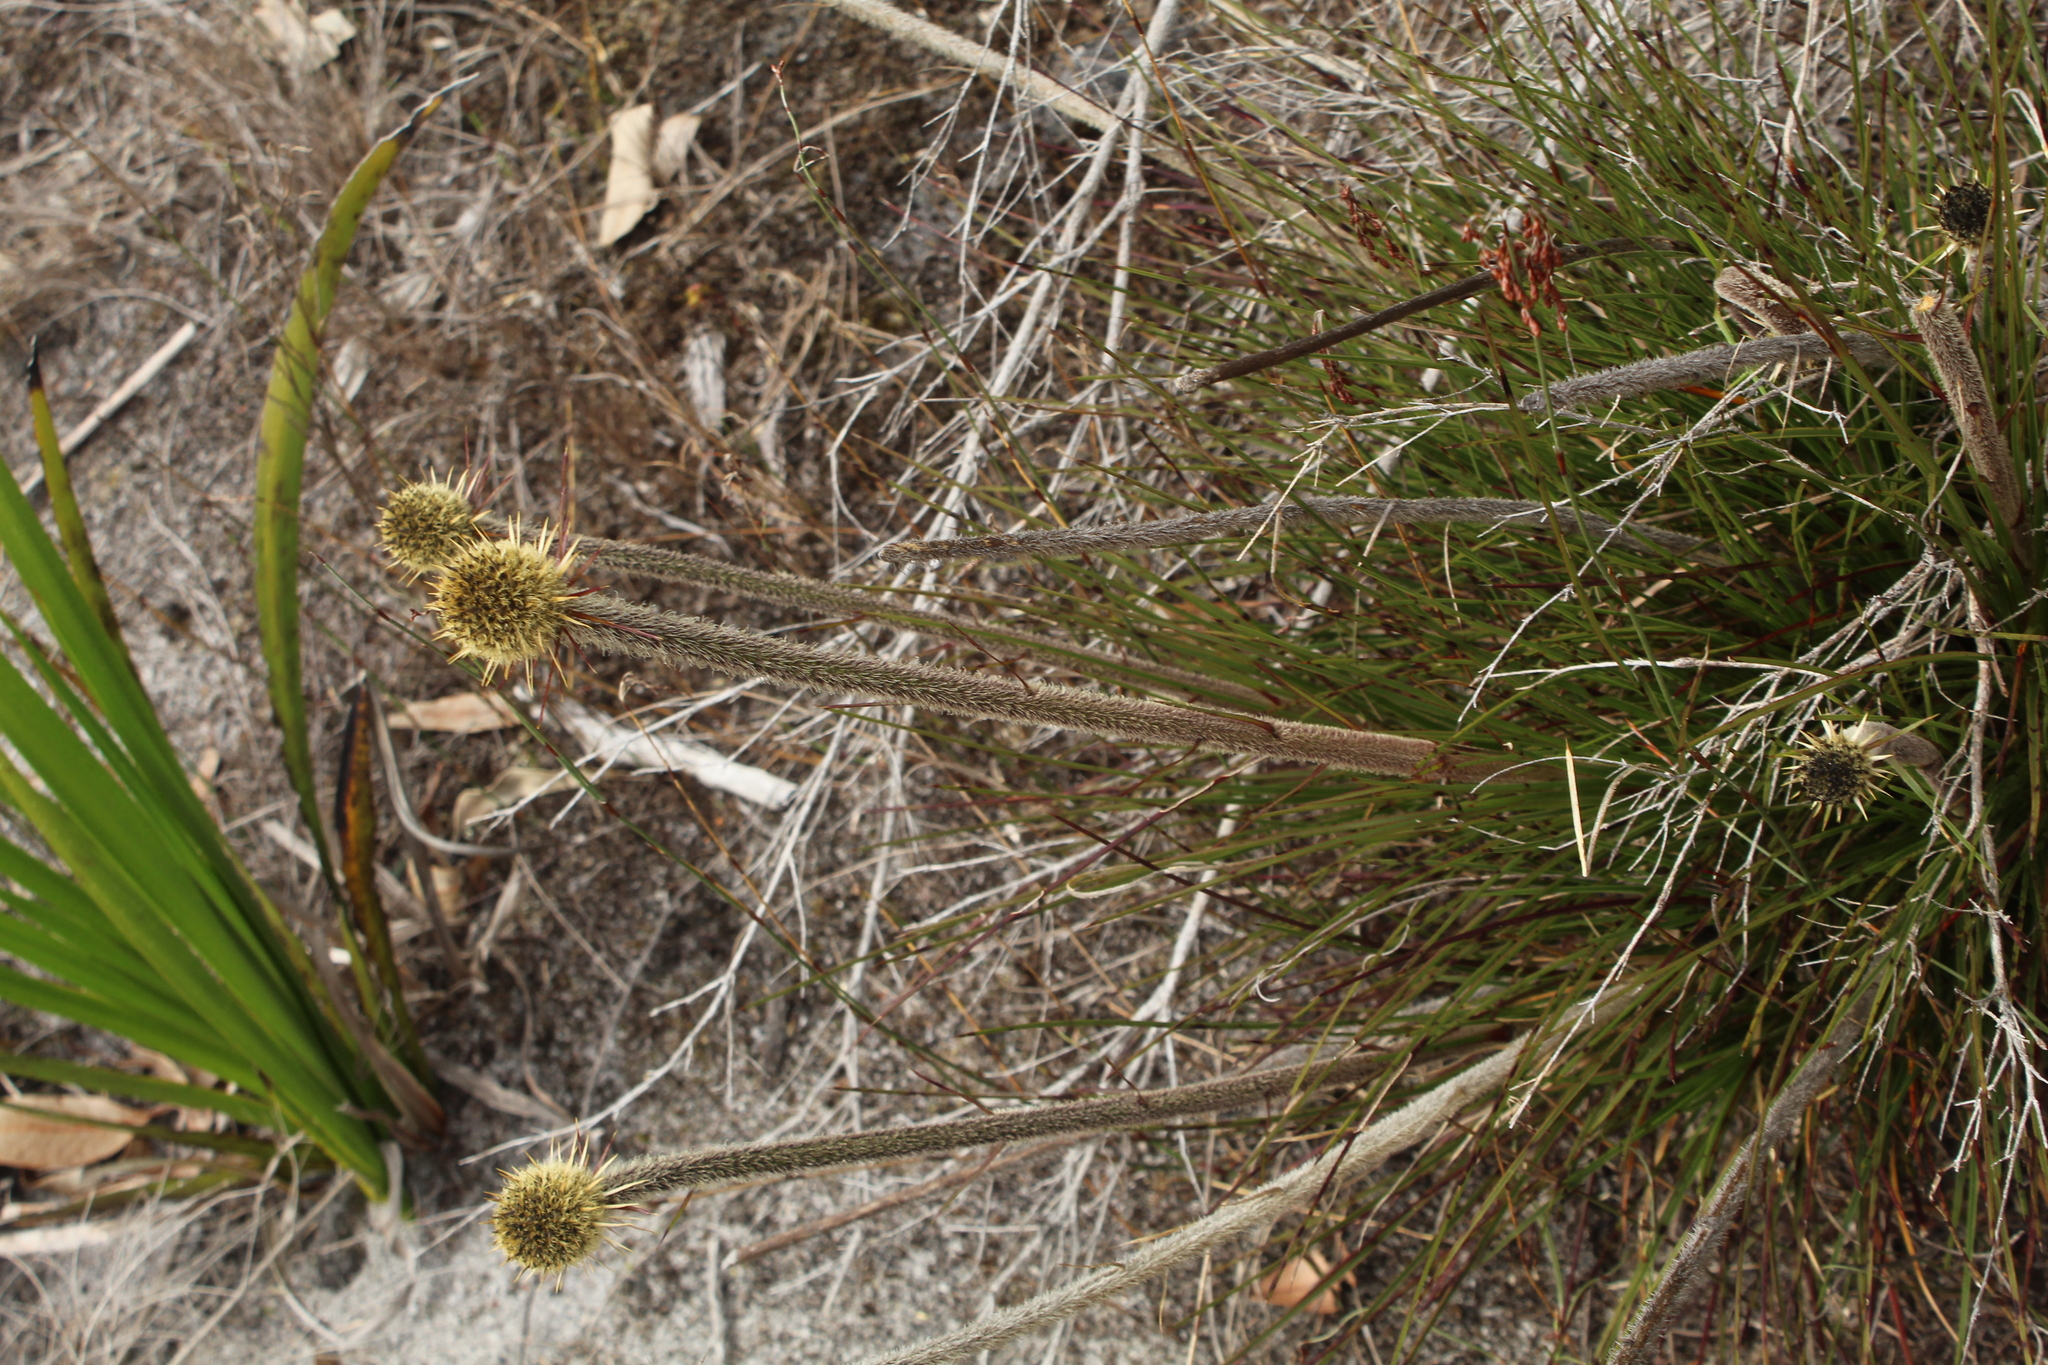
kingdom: Plantae
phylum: Tracheophyta
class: Liliopsida
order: Arecales
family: Dasypogonaceae
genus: Dasypogon
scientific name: Dasypogon bromeliifolius
